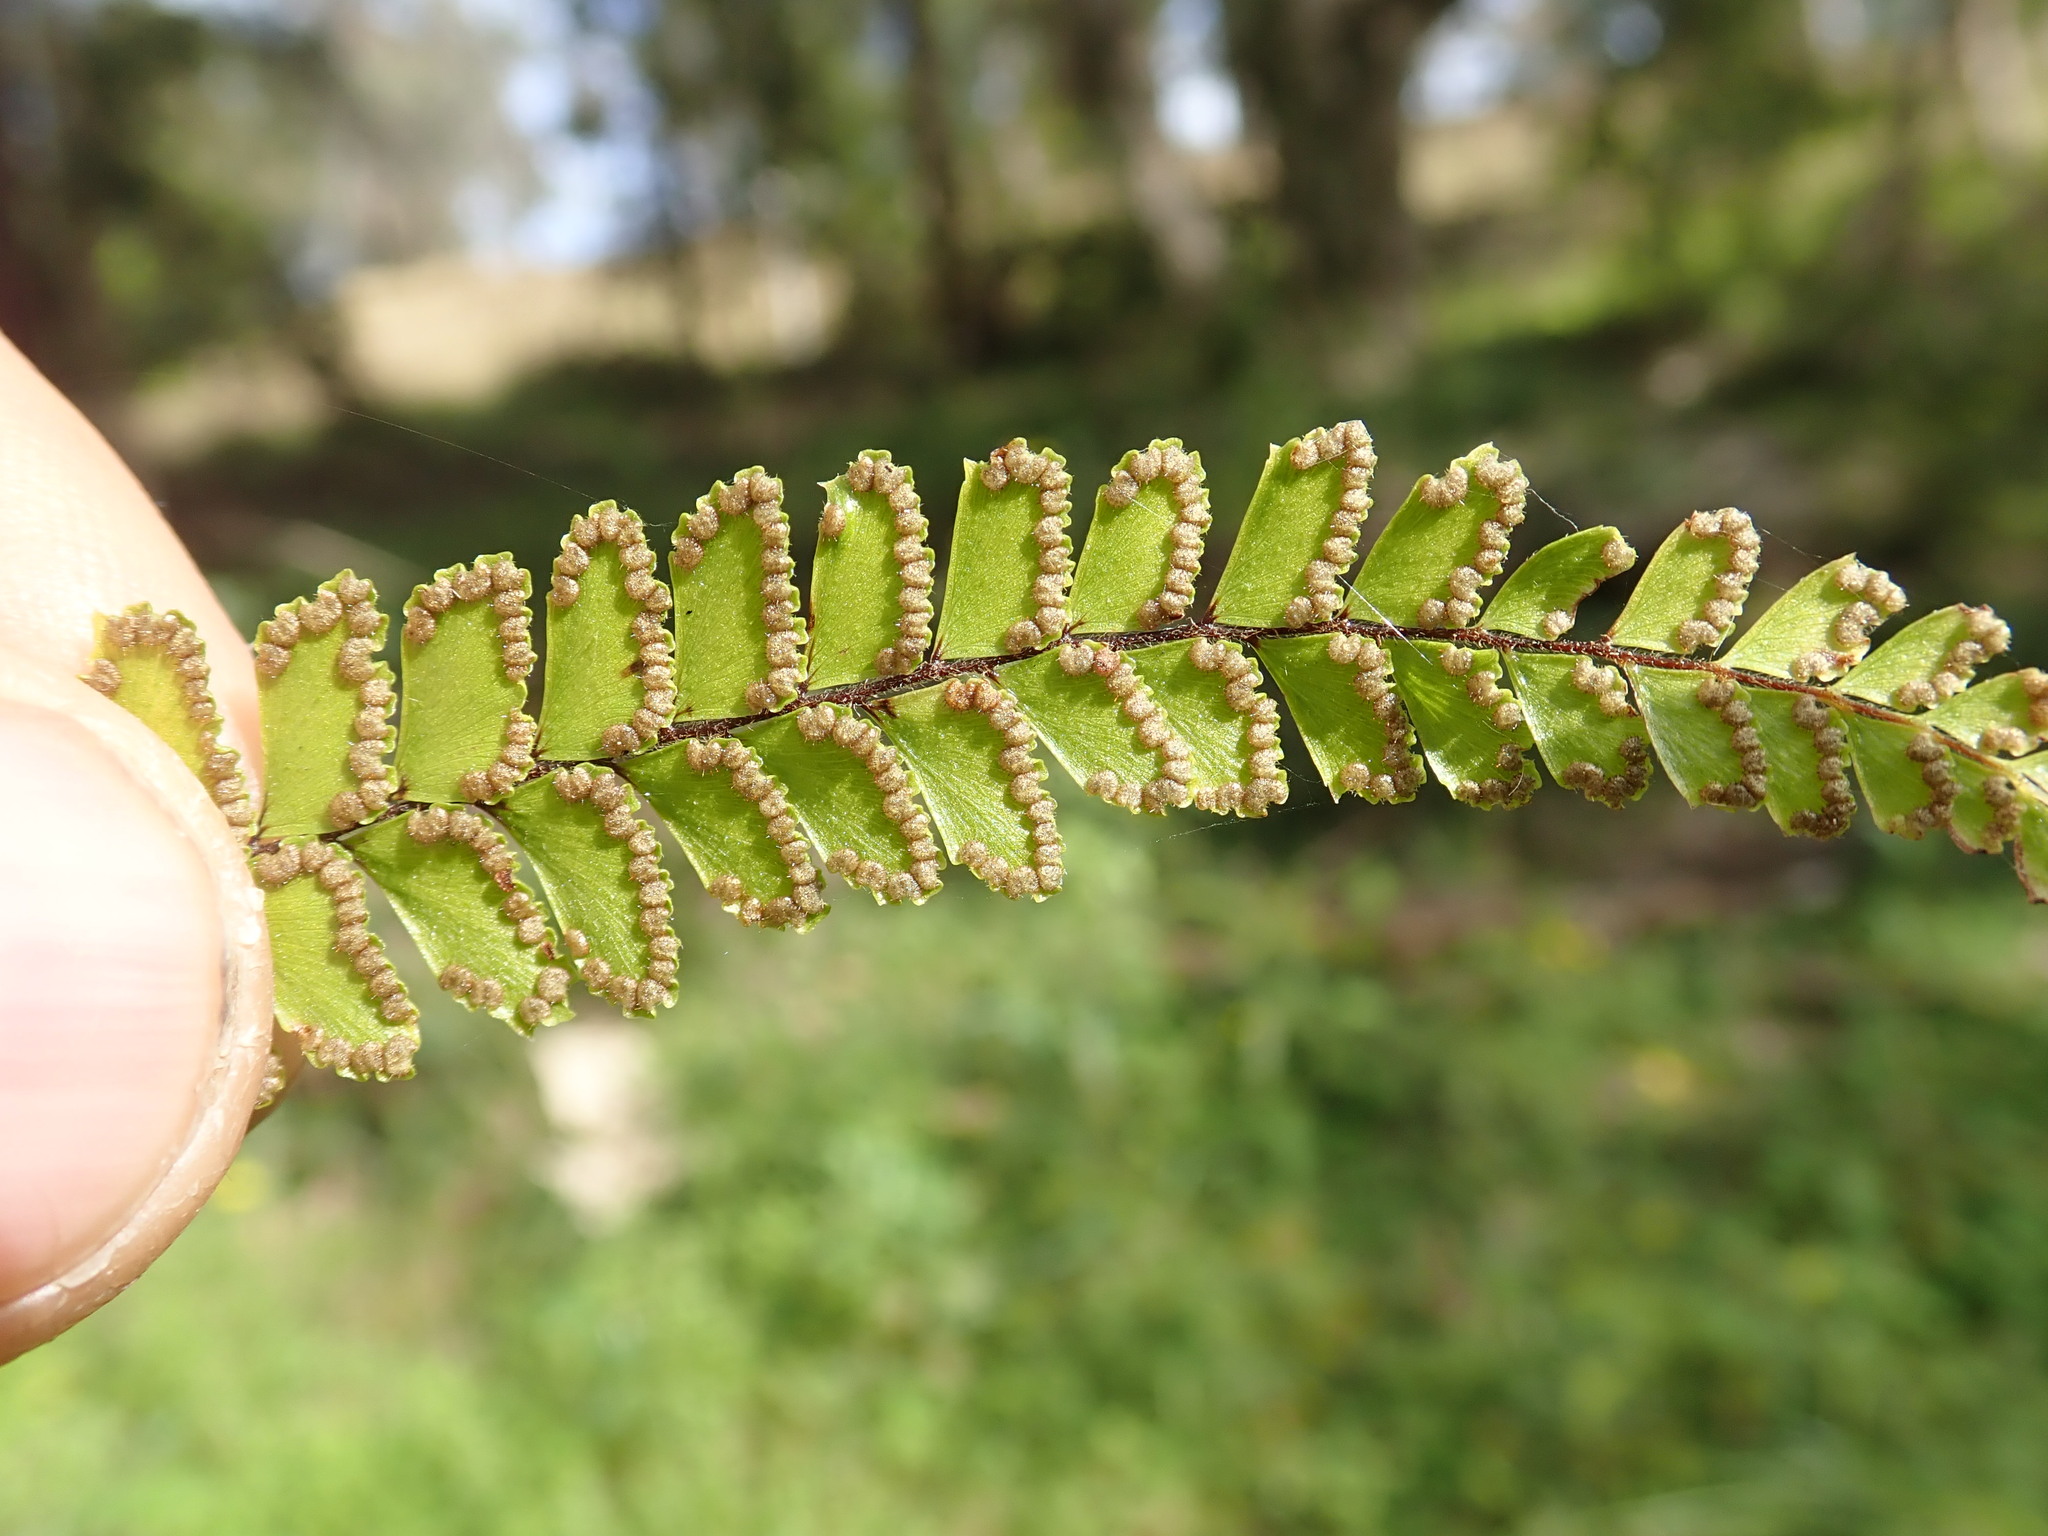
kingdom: Plantae
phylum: Tracheophyta
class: Polypodiopsida
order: Polypodiales
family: Pteridaceae
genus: Adiantum
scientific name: Adiantum hispidulum
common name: Rough maidenhair
